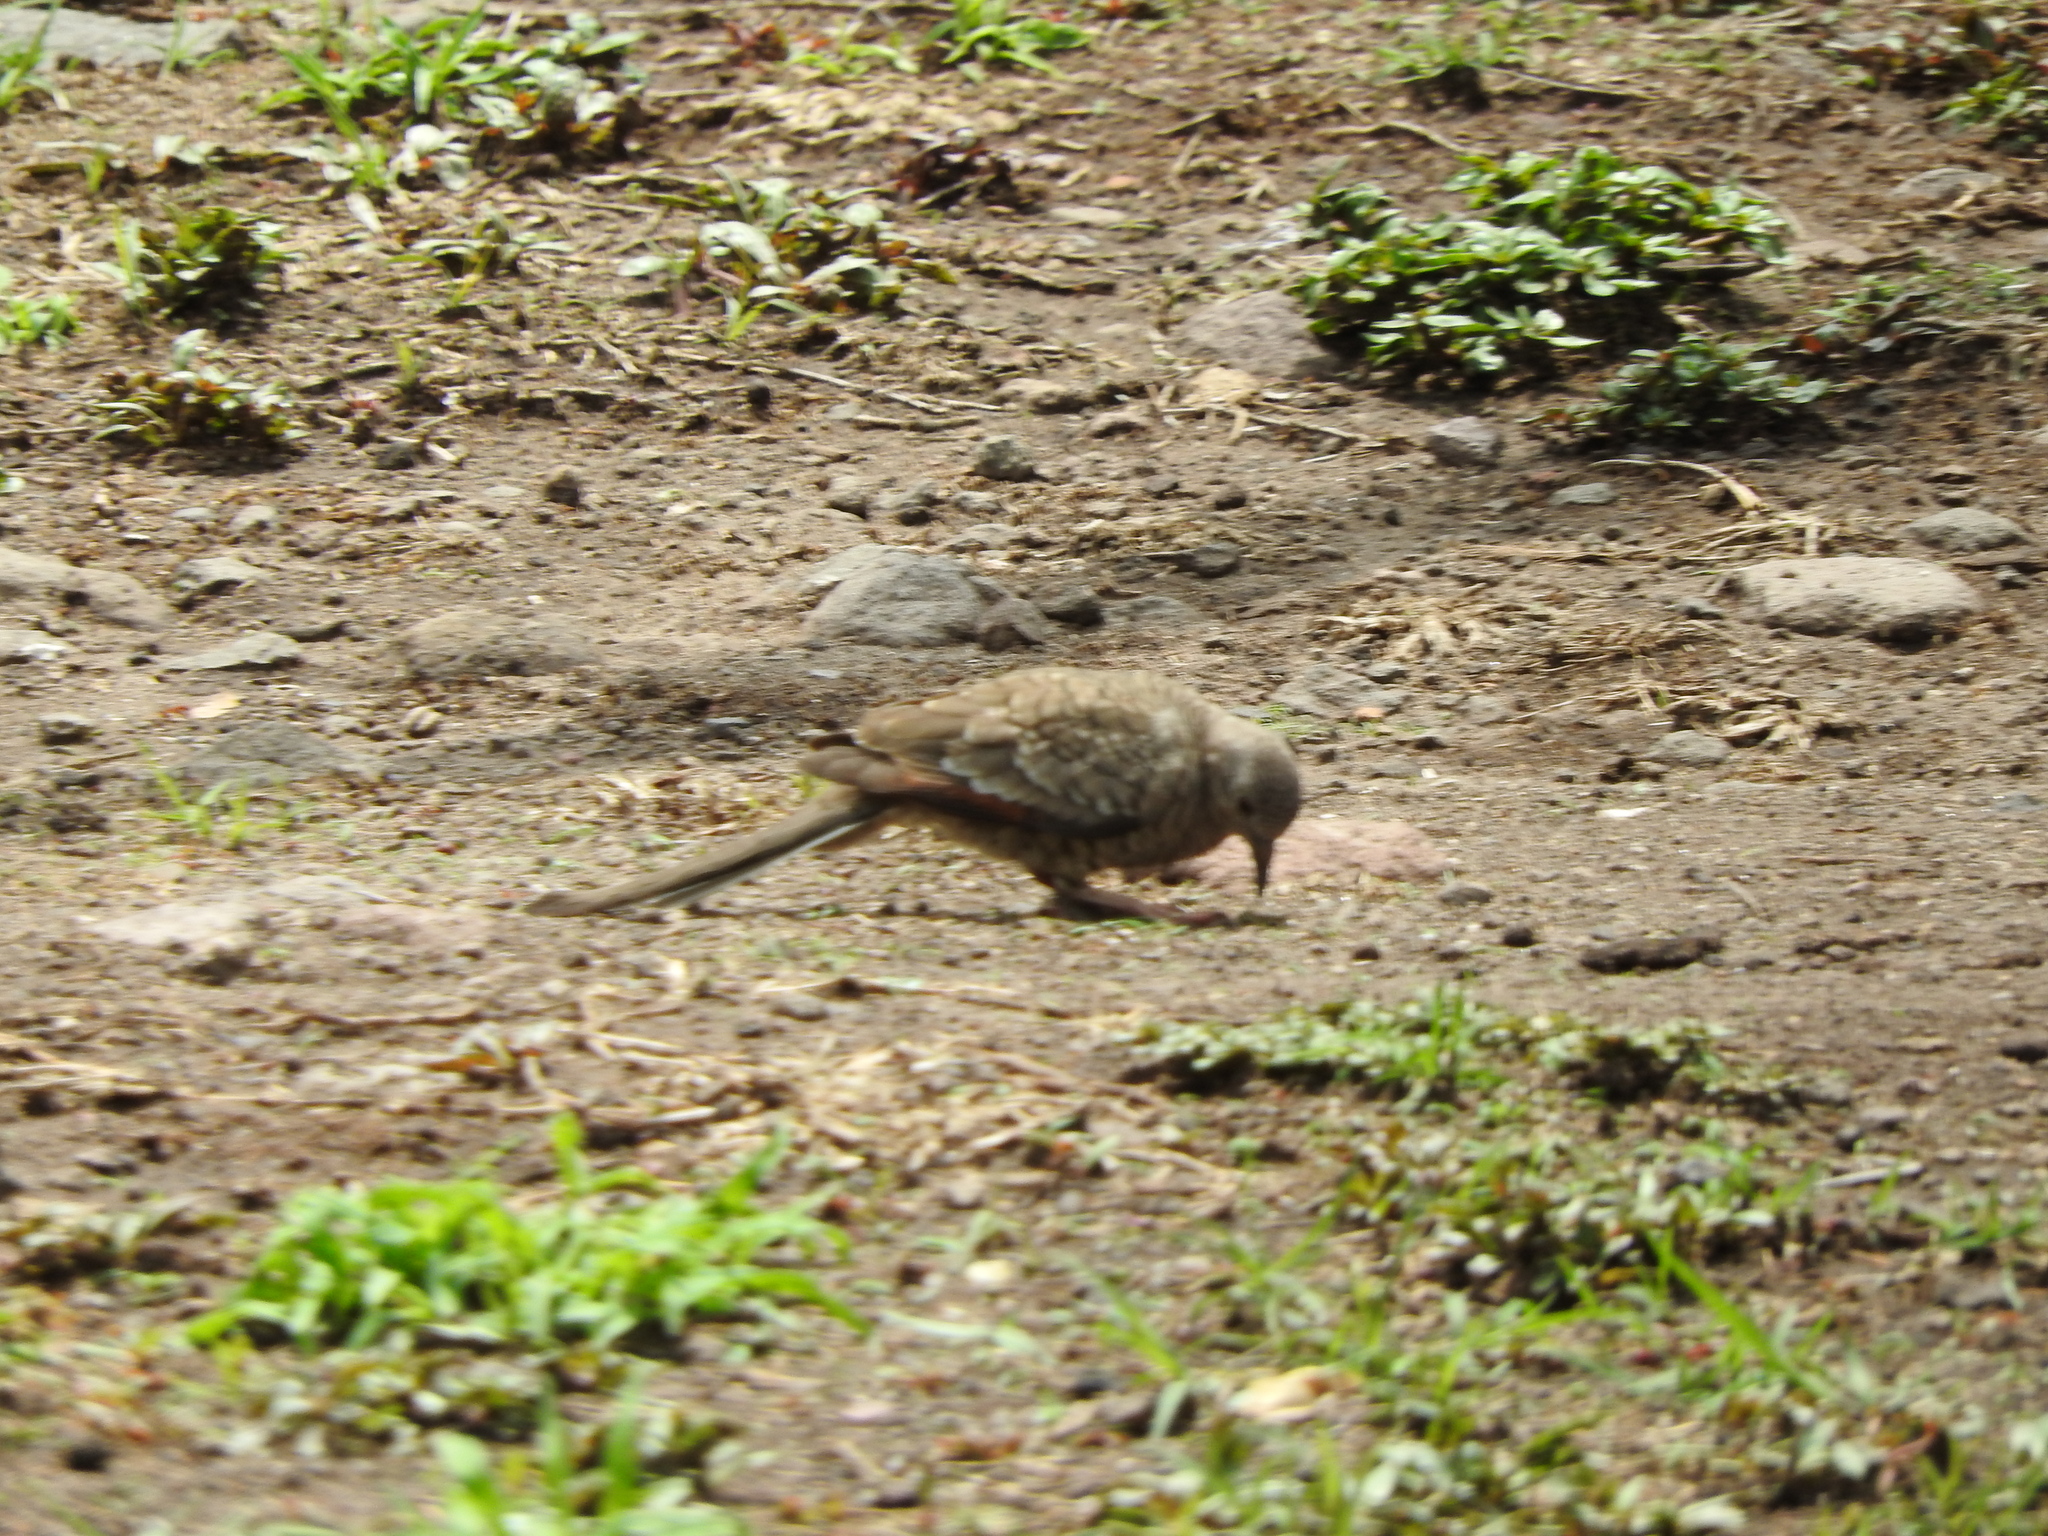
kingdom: Animalia
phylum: Chordata
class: Aves
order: Columbiformes
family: Columbidae
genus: Columbina
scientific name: Columbina inca
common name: Inca dove
